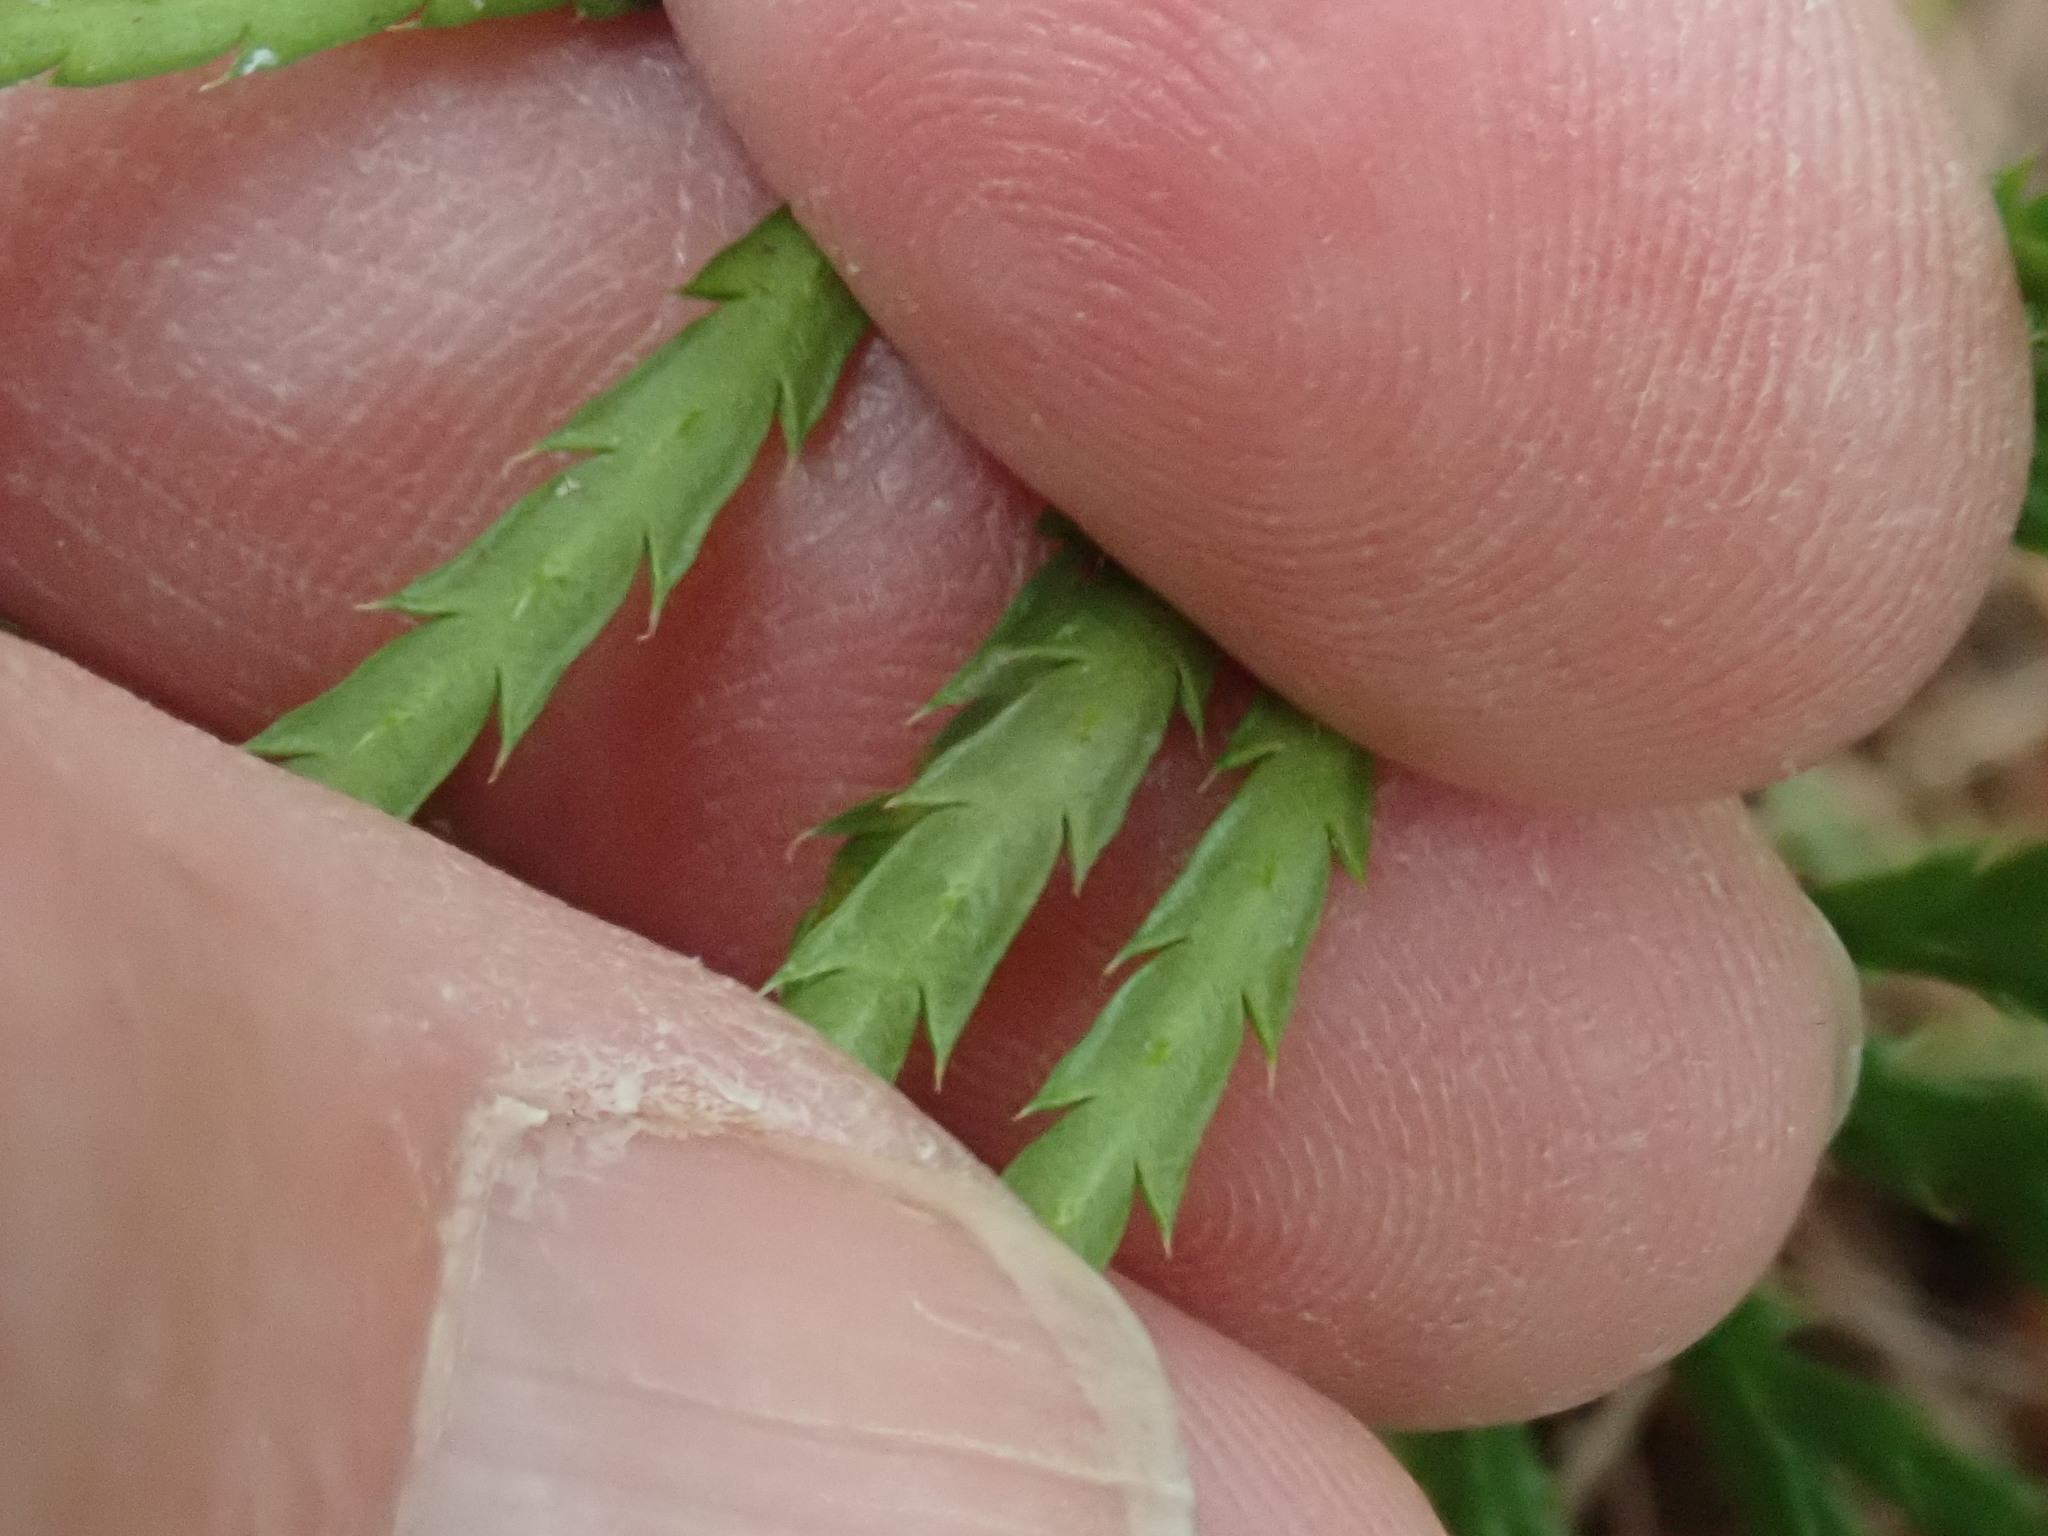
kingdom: Plantae
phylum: Tracheophyta
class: Lycopodiopsida
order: Lycopodiales
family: Lycopodiaceae
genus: Diphasiastrum
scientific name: Diphasiastrum digitatum
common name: Southern running-pine
